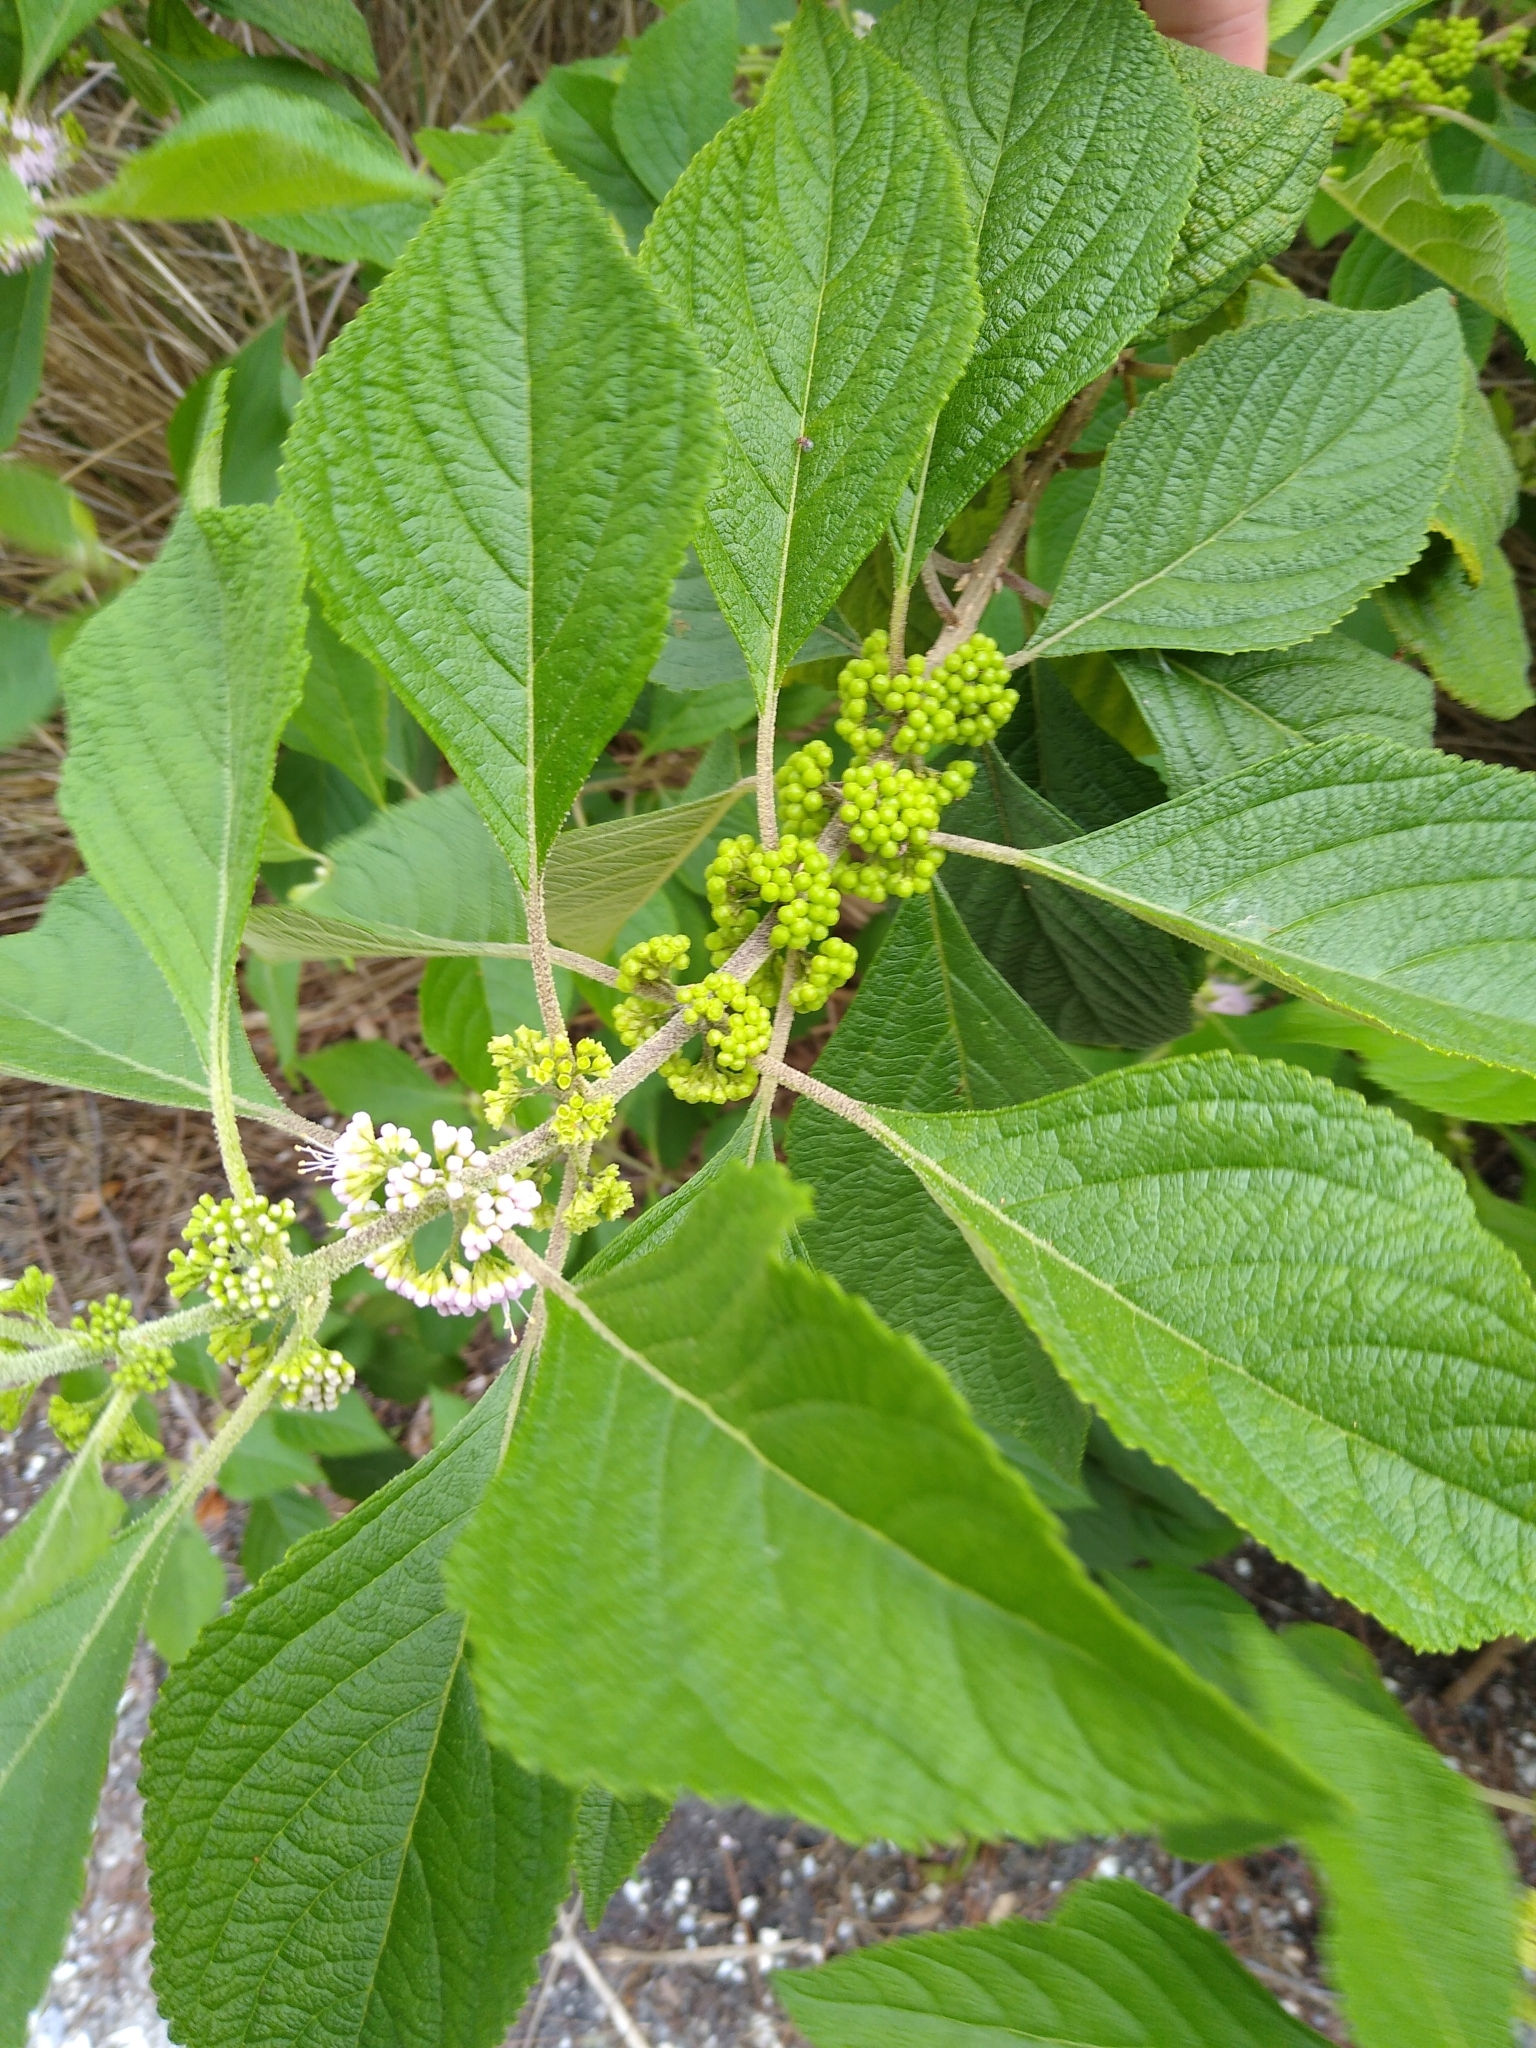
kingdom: Plantae
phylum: Tracheophyta
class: Magnoliopsida
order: Lamiales
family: Lamiaceae
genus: Callicarpa
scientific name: Callicarpa americana
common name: American beautyberry
